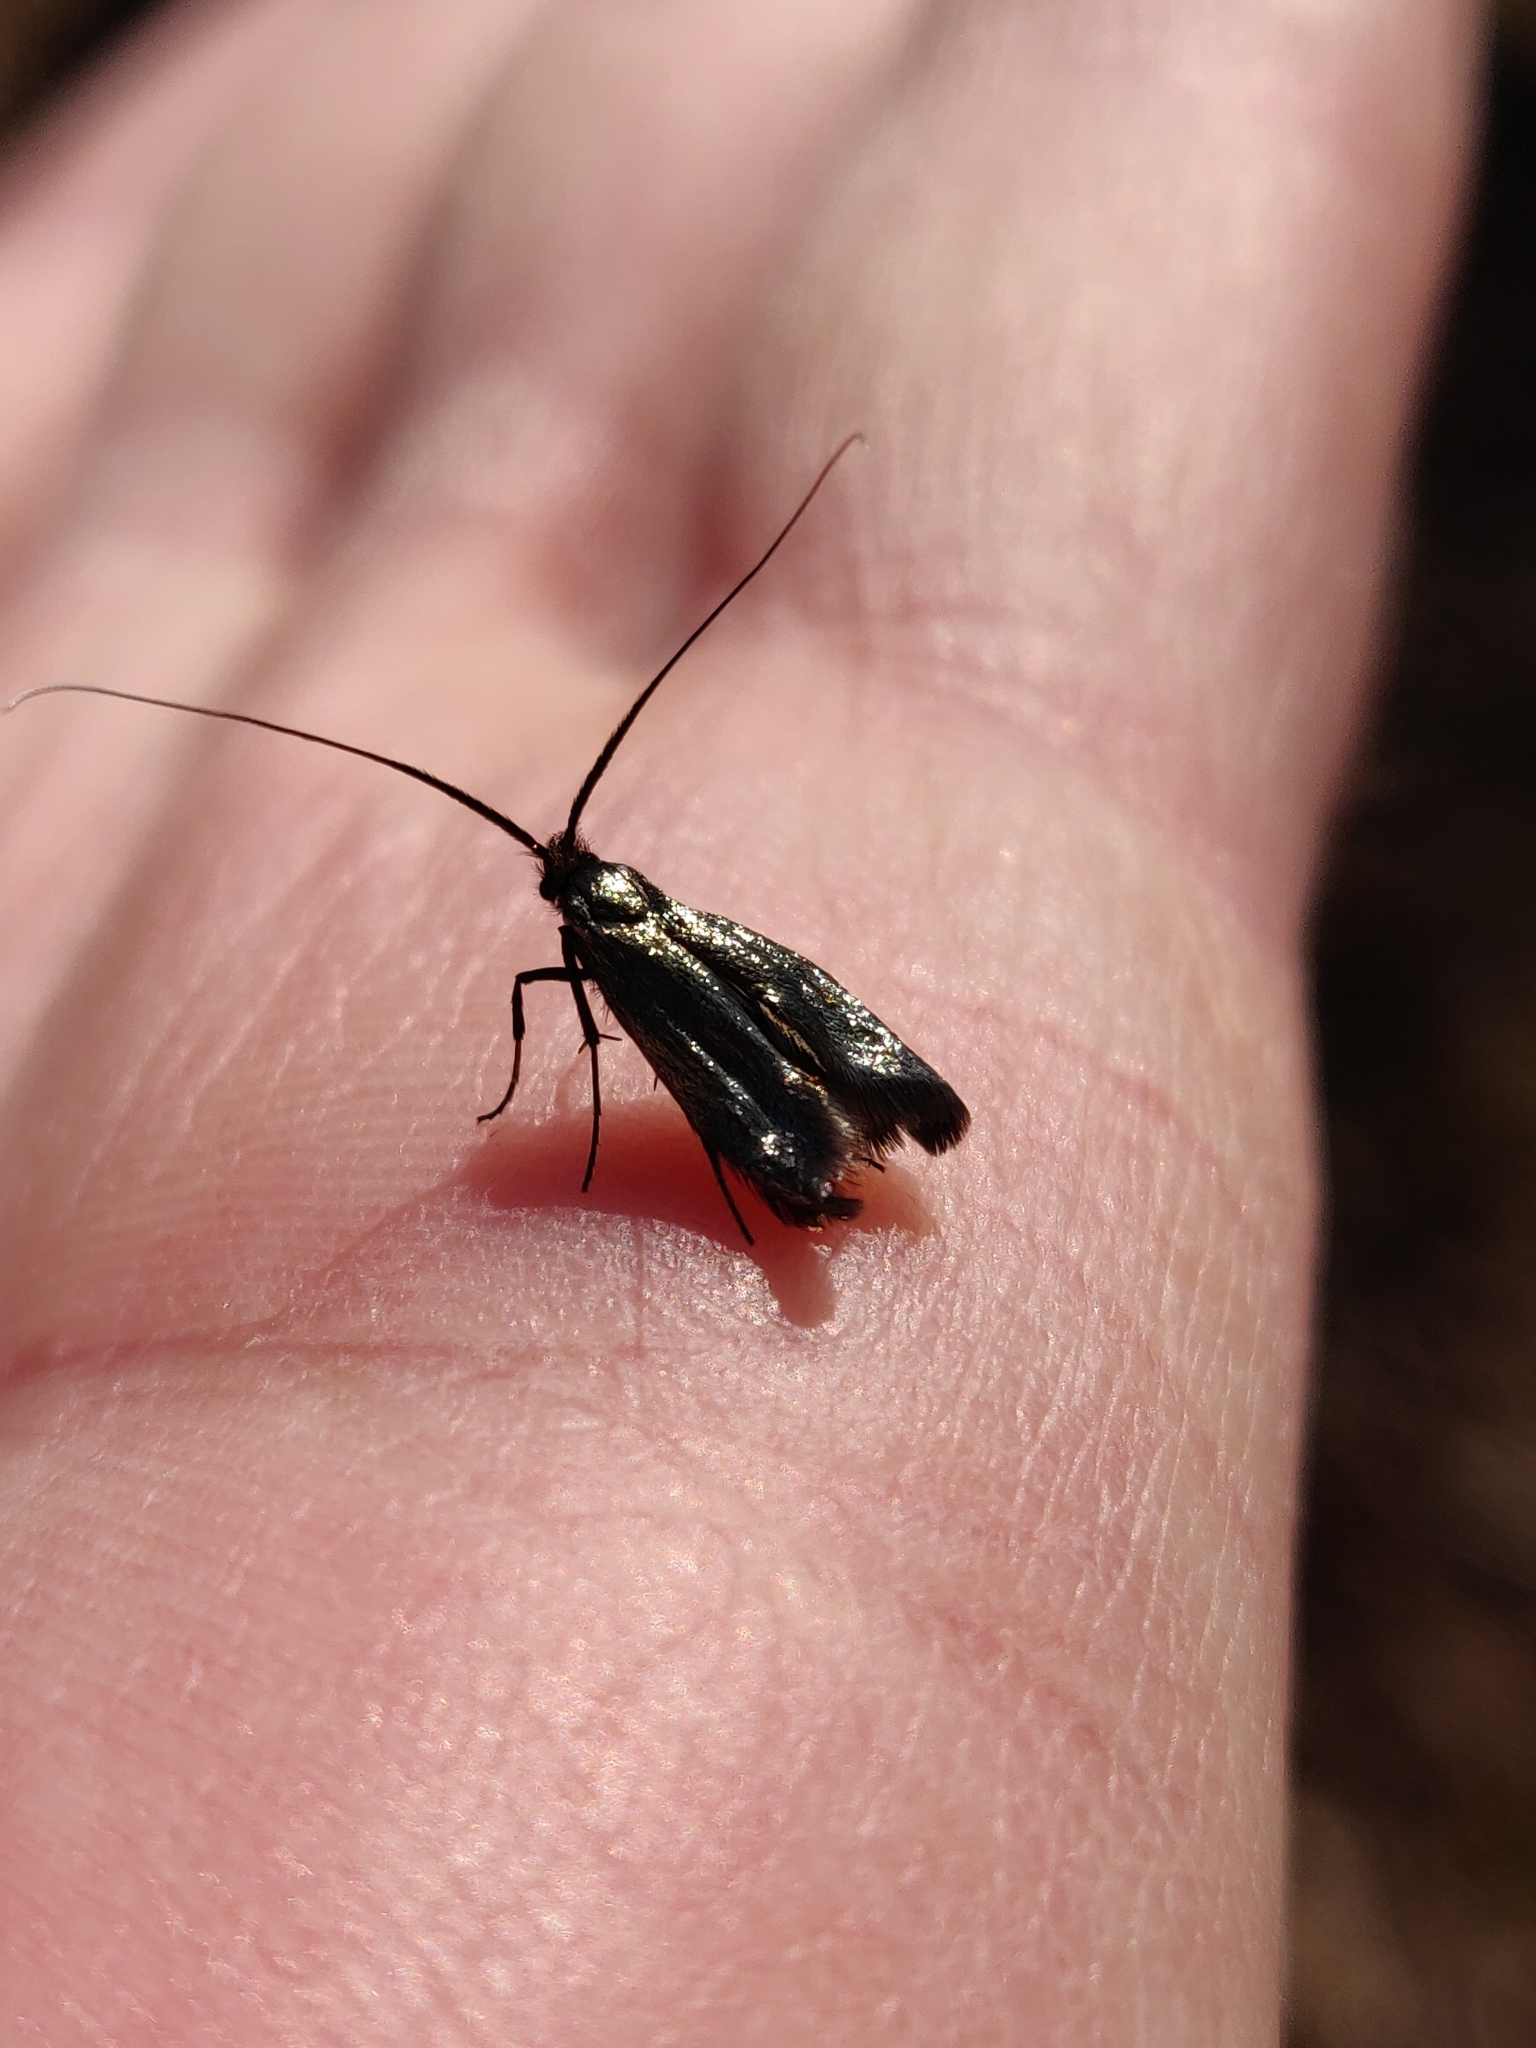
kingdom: Animalia
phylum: Arthropoda
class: Insecta
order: Lepidoptera
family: Adelidae
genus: Adela
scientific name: Adela viridella
